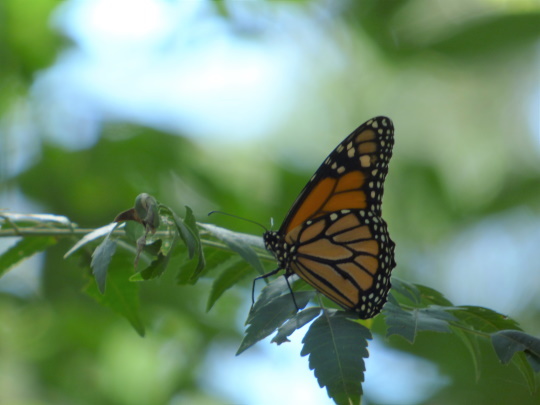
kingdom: Animalia
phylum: Arthropoda
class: Insecta
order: Lepidoptera
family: Nymphalidae
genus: Danaus
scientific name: Danaus plexippus
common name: Monarch
